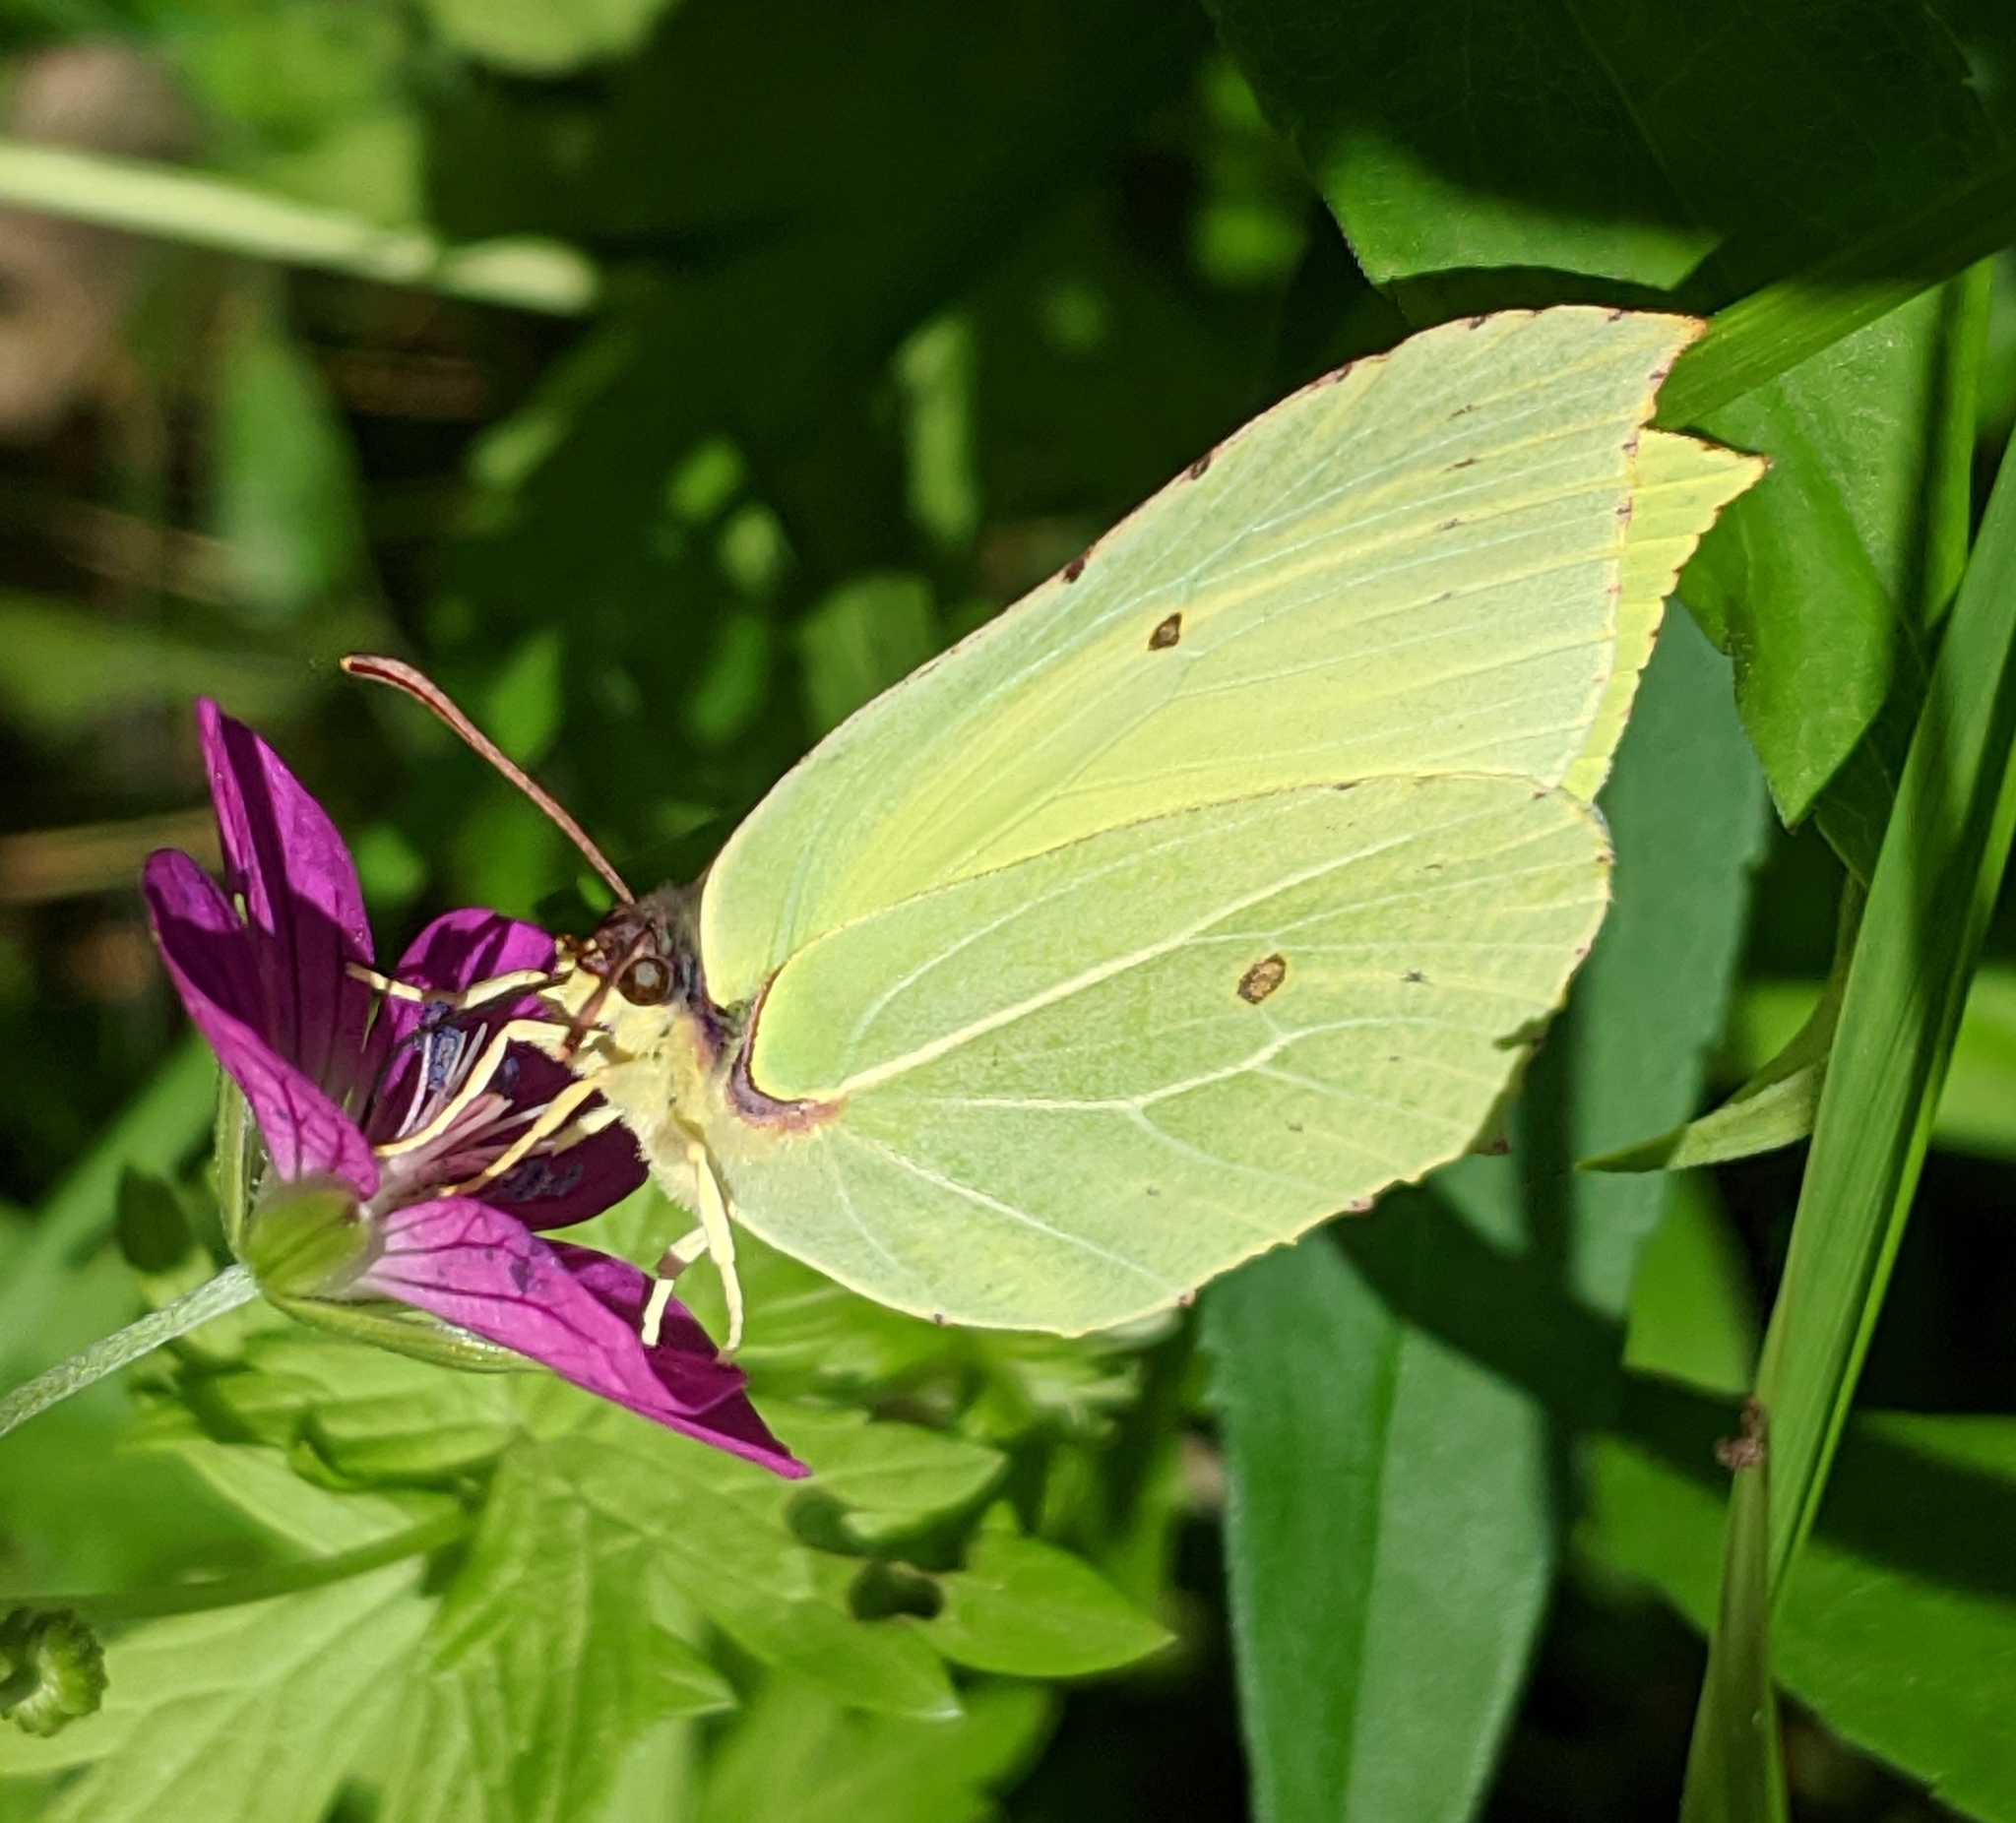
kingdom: Animalia
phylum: Arthropoda
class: Insecta
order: Lepidoptera
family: Pieridae
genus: Gonepteryx
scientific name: Gonepteryx rhamni
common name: Brimstone
